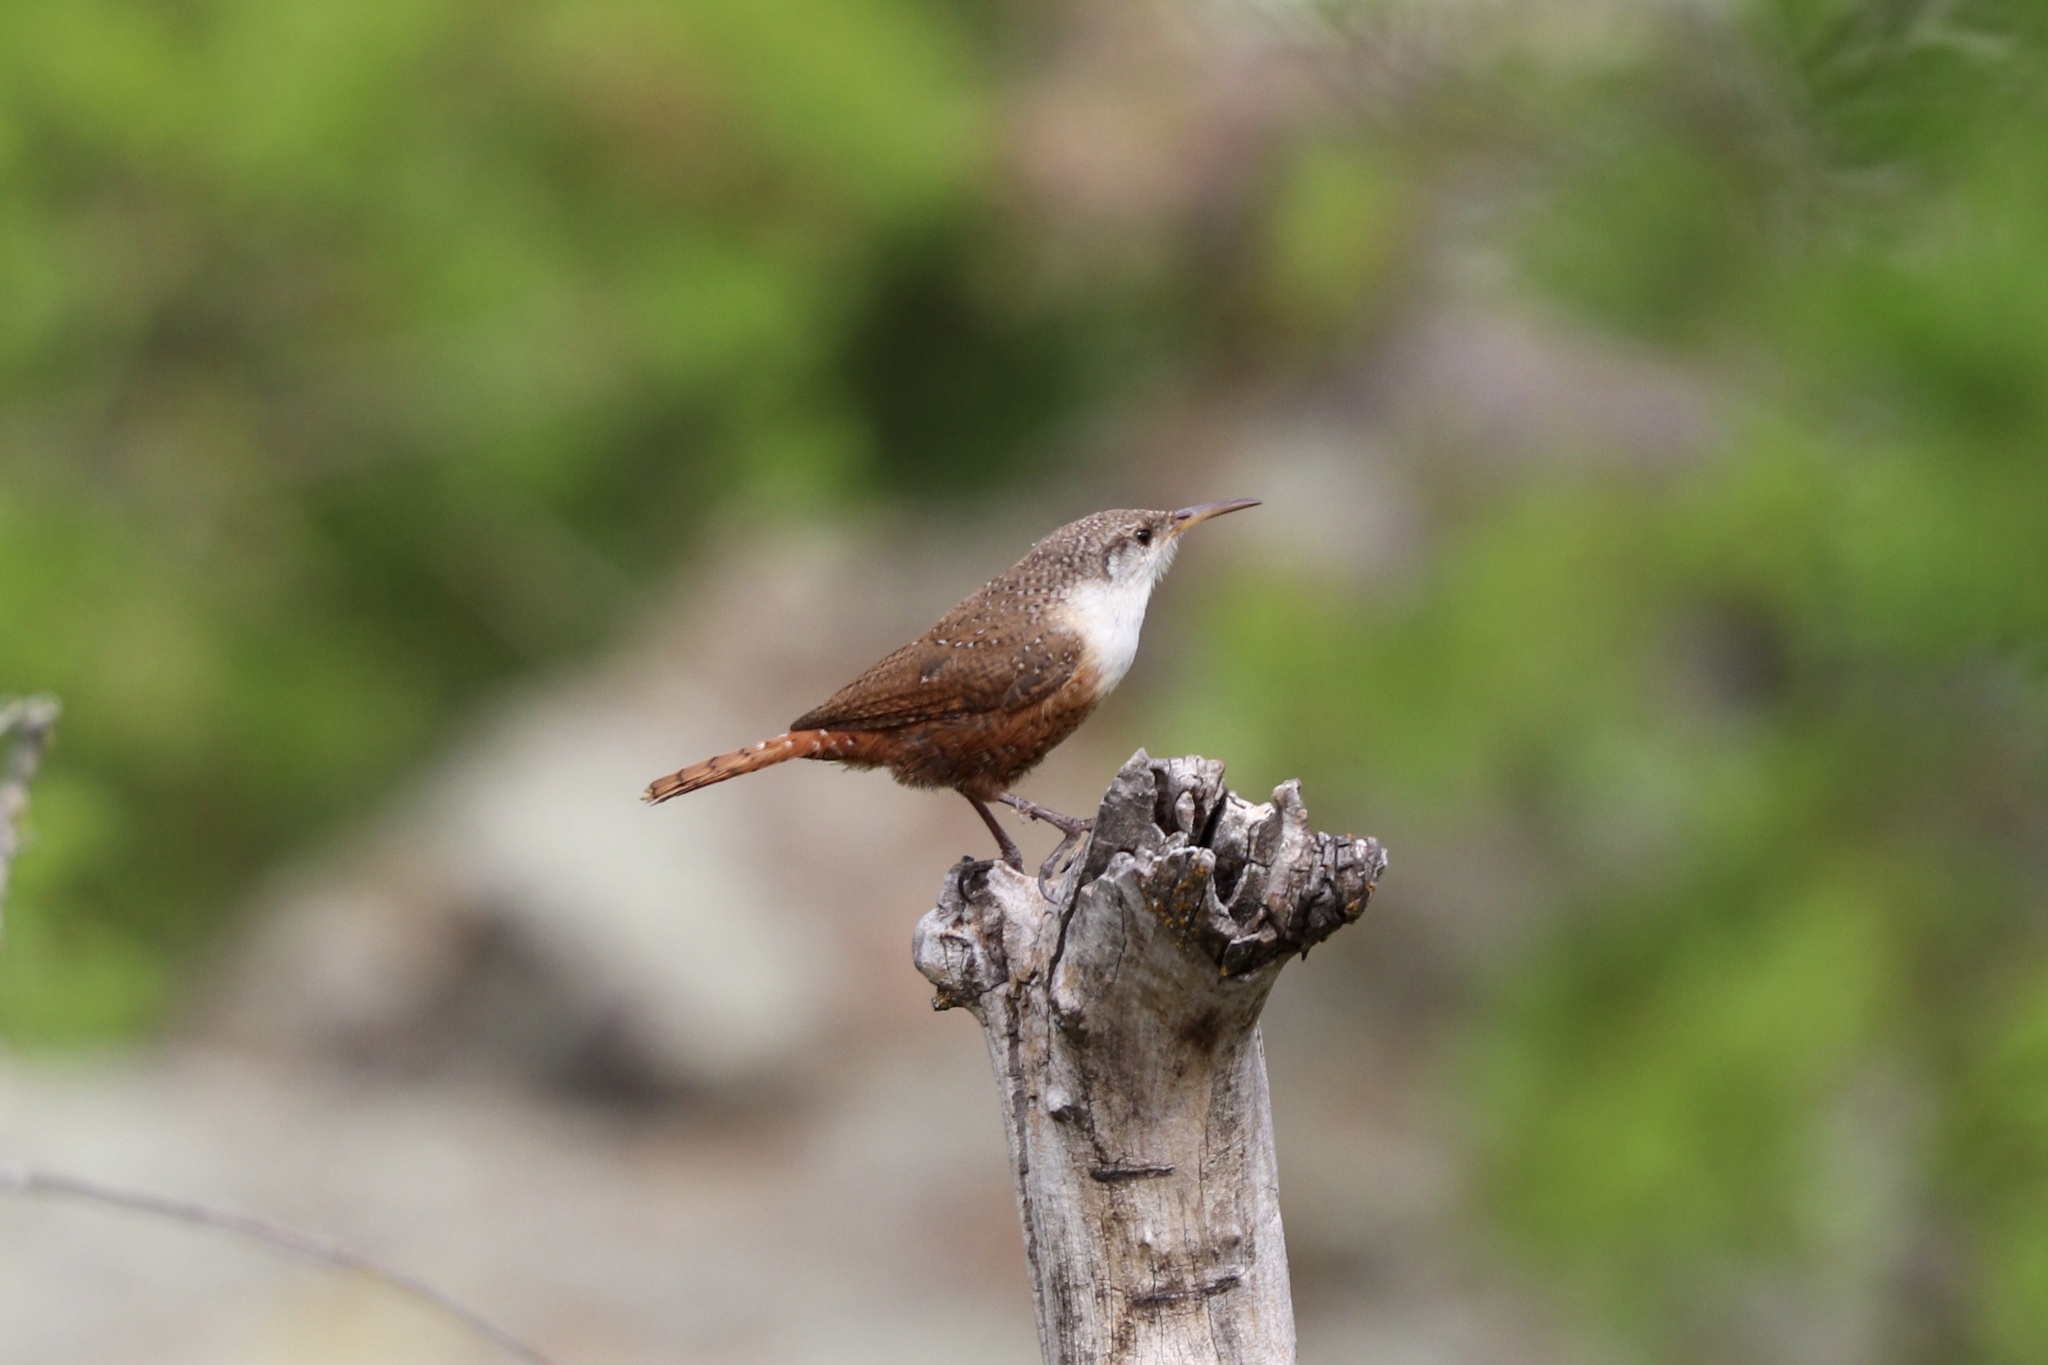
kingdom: Animalia
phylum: Chordata
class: Aves
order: Passeriformes
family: Troglodytidae
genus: Catherpes
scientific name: Catherpes mexicanus
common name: Canyon wren
